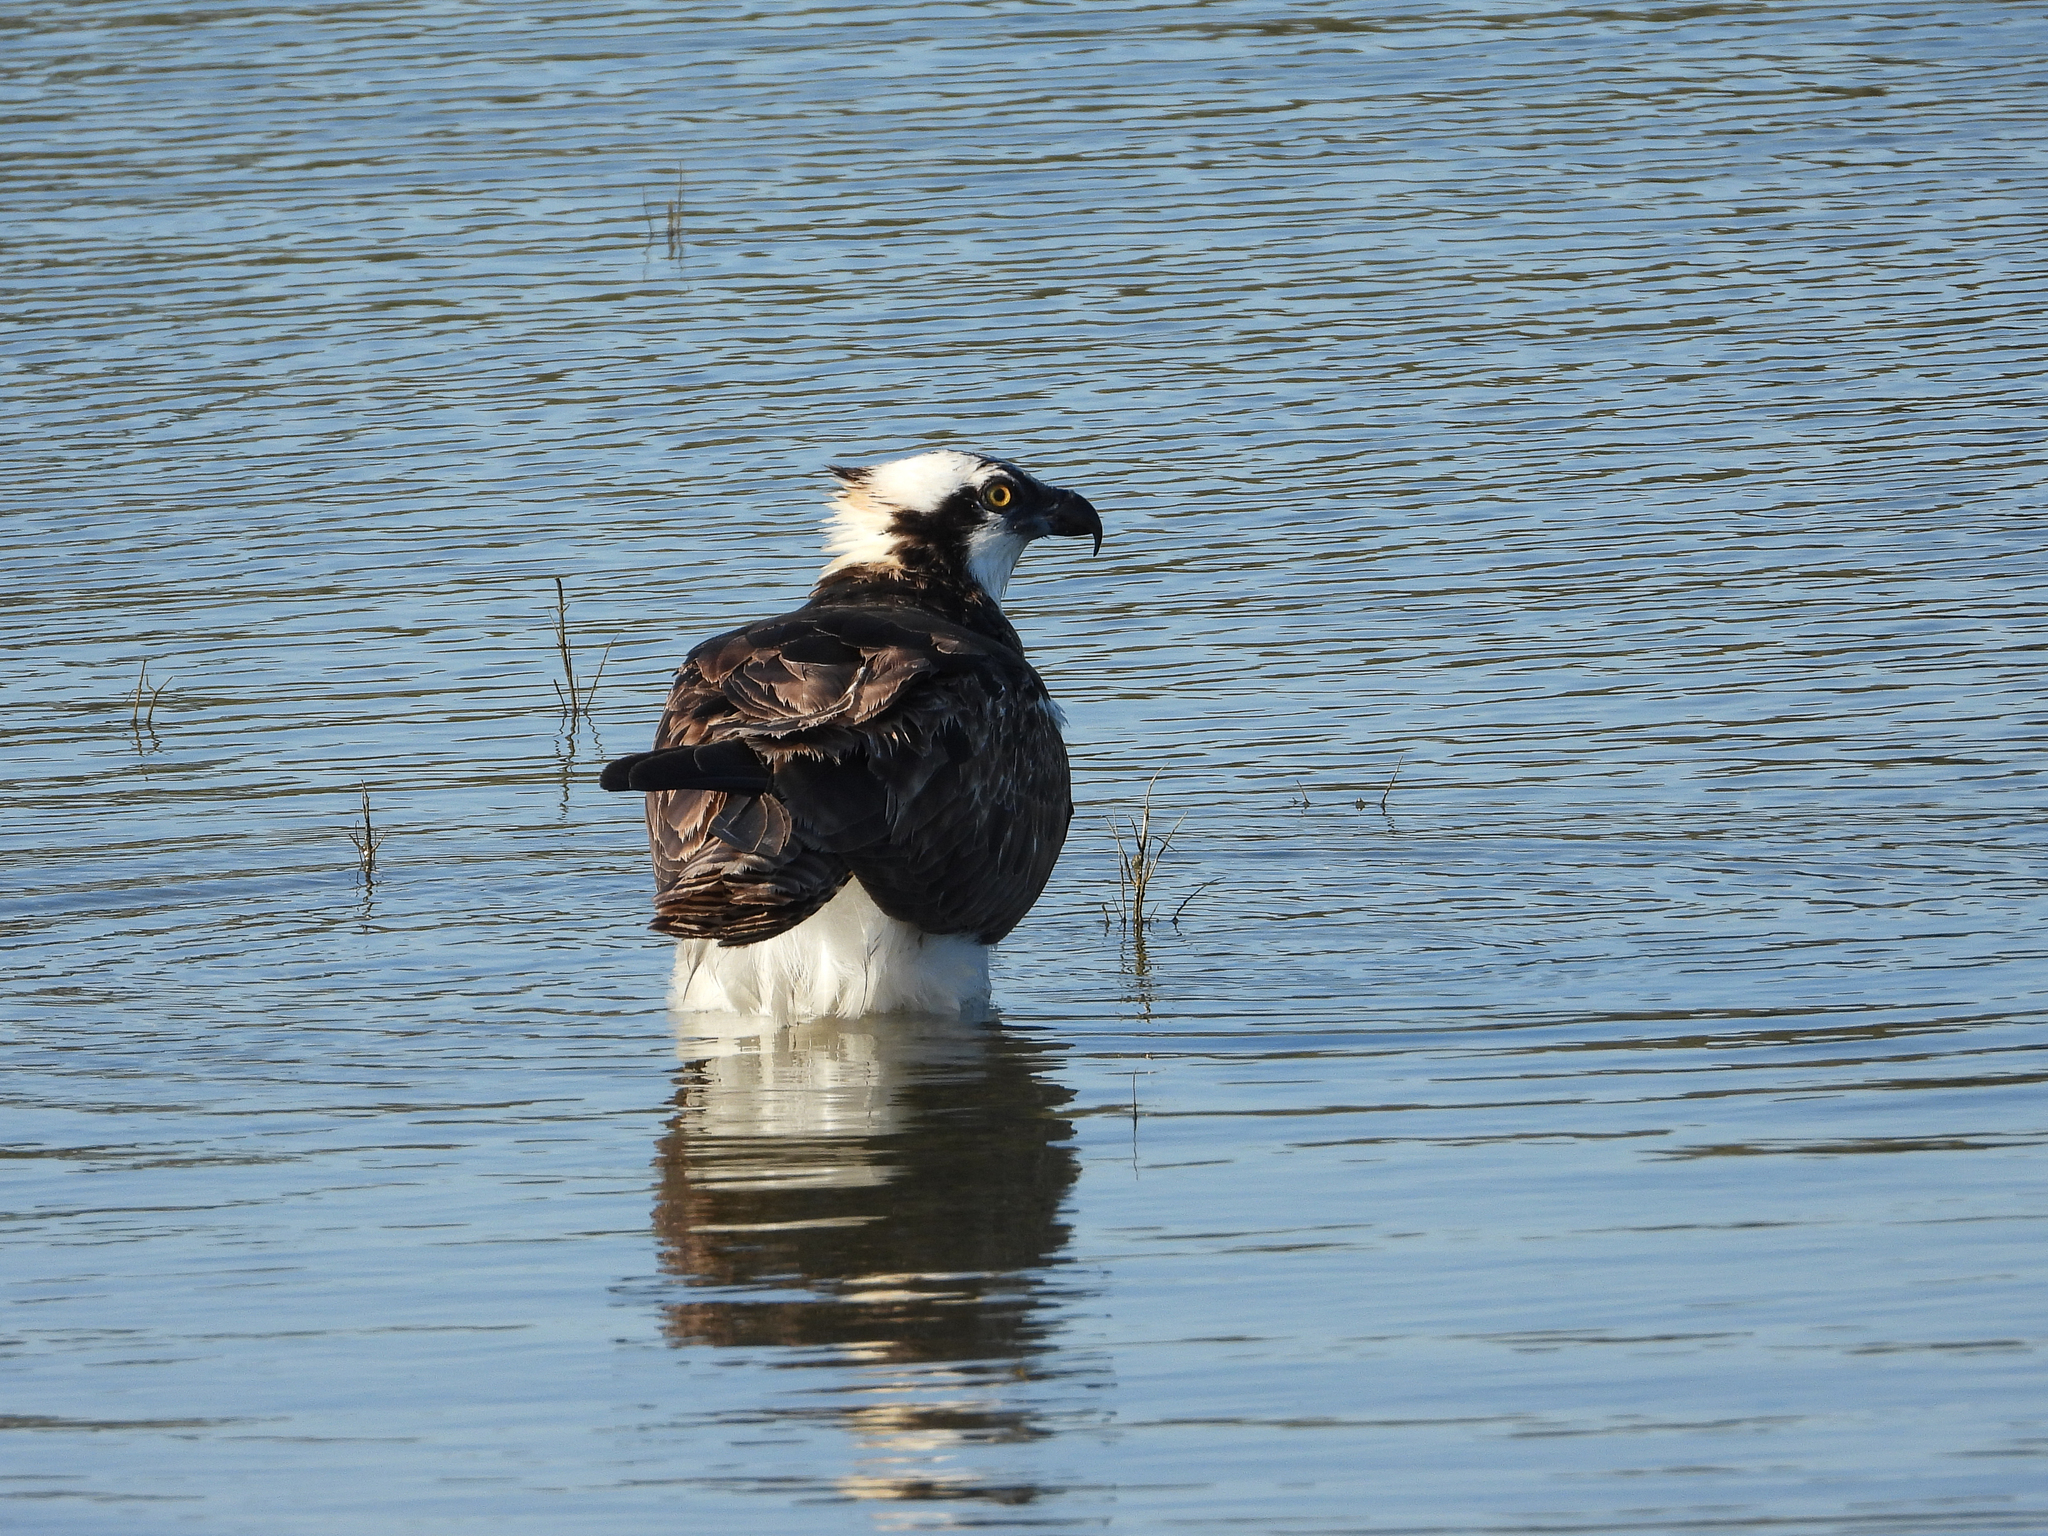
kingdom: Animalia
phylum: Chordata
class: Aves
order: Accipitriformes
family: Pandionidae
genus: Pandion
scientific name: Pandion haliaetus
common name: Osprey
